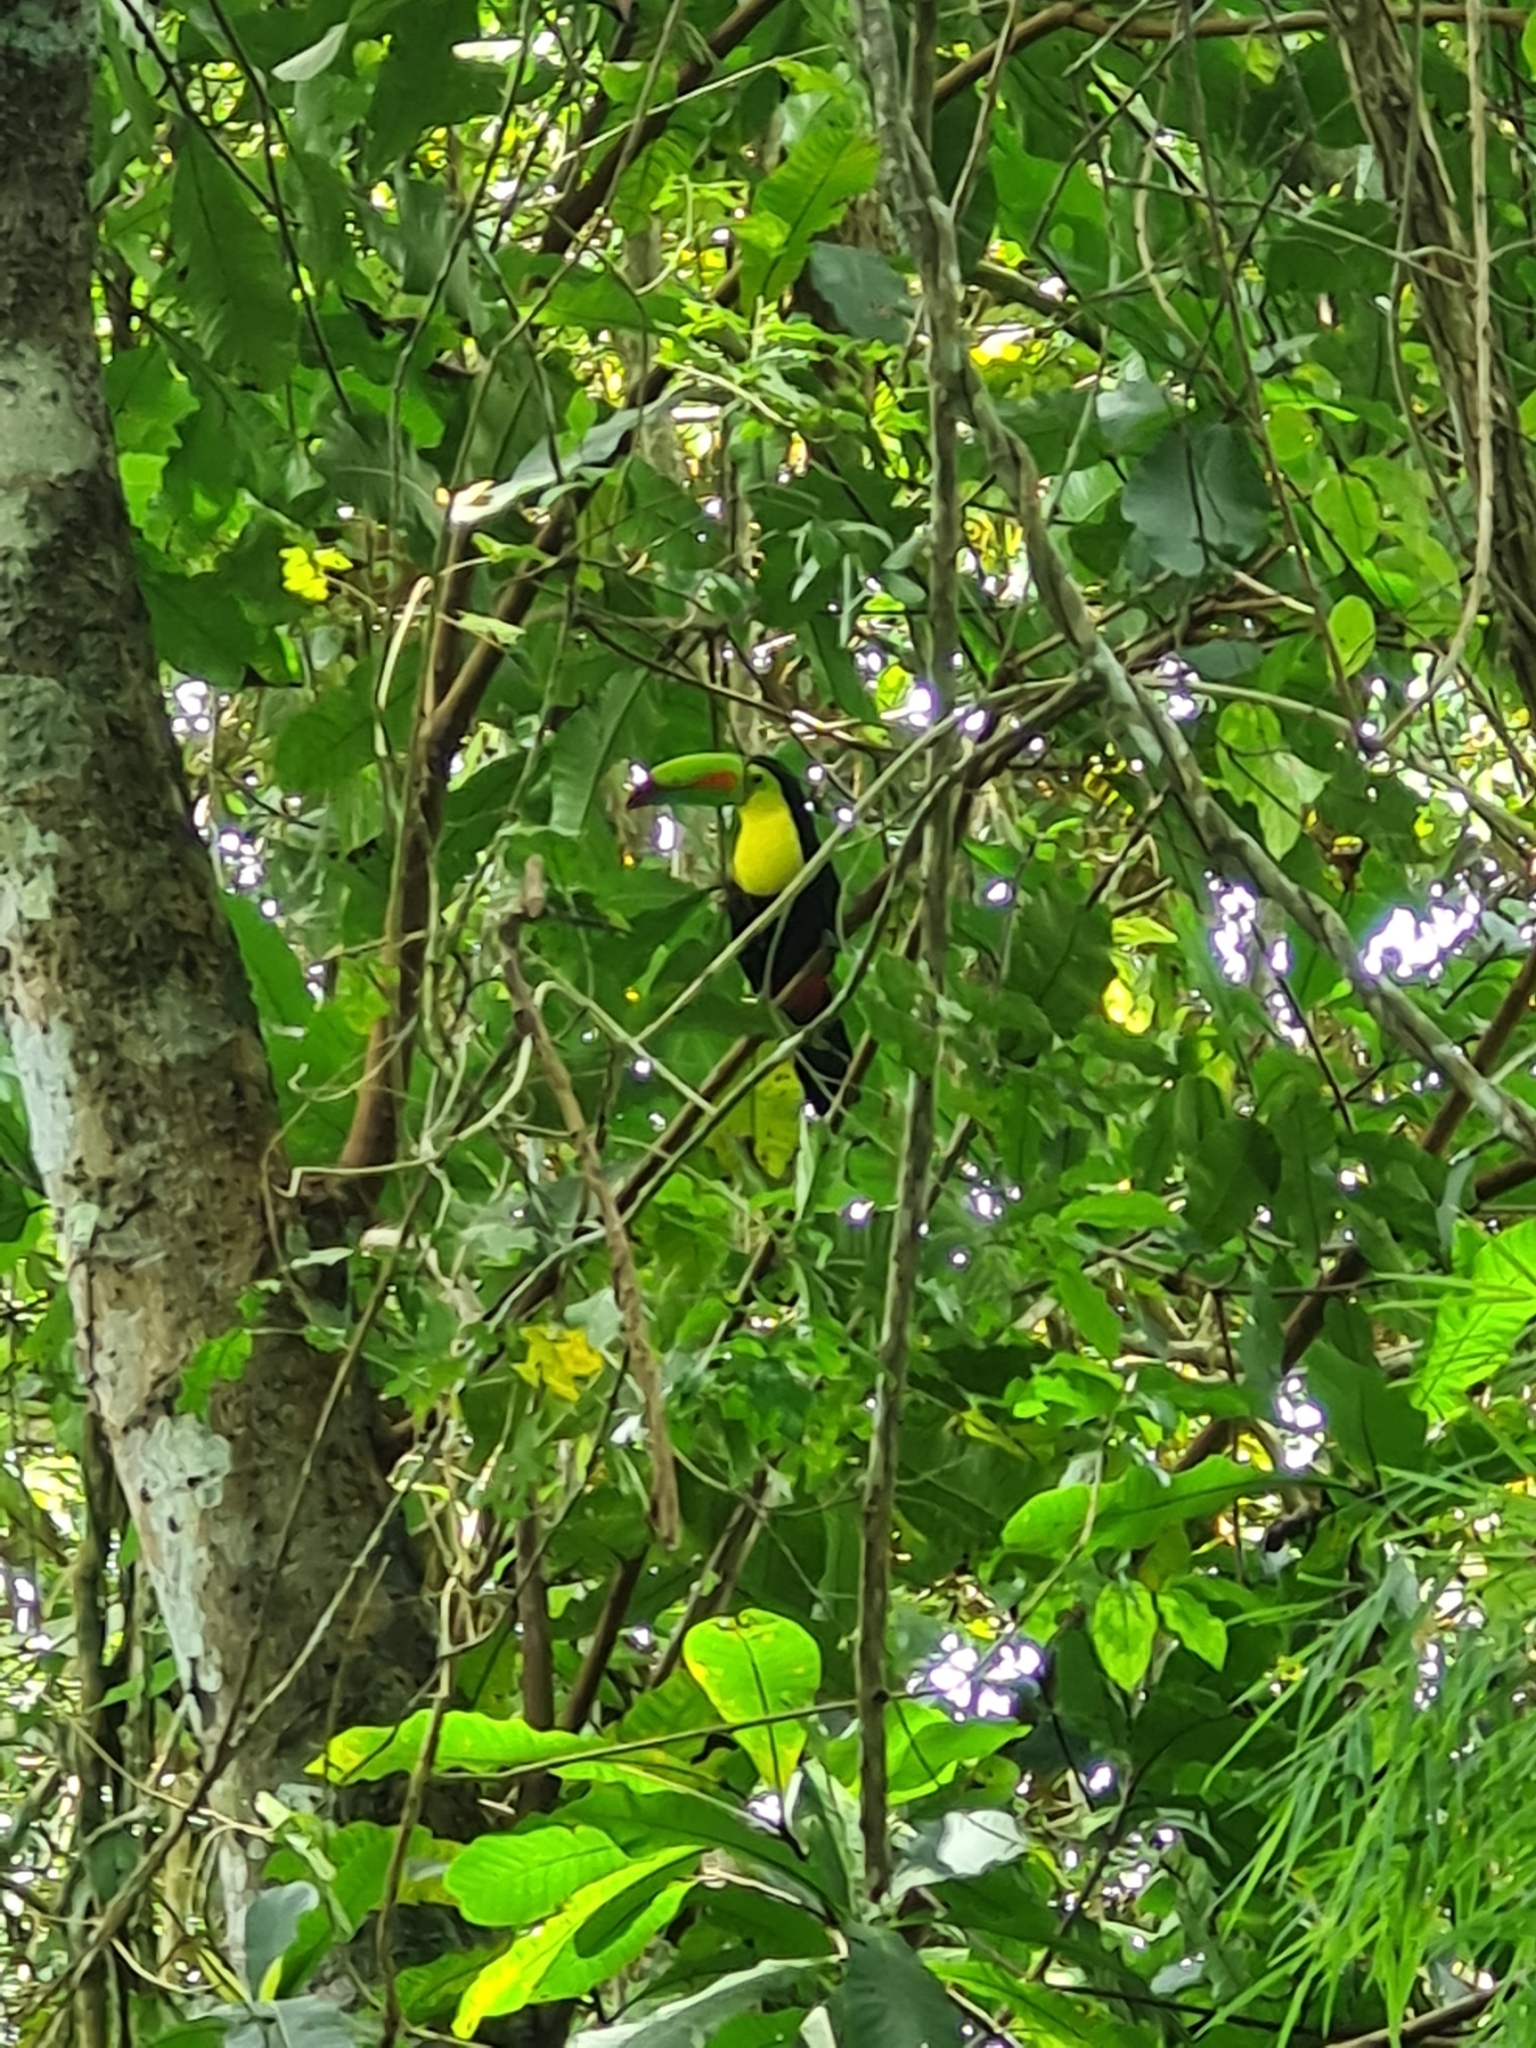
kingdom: Animalia
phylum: Chordata
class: Aves
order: Piciformes
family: Ramphastidae
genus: Ramphastos
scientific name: Ramphastos sulfuratus
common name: Keel-billed toucan
